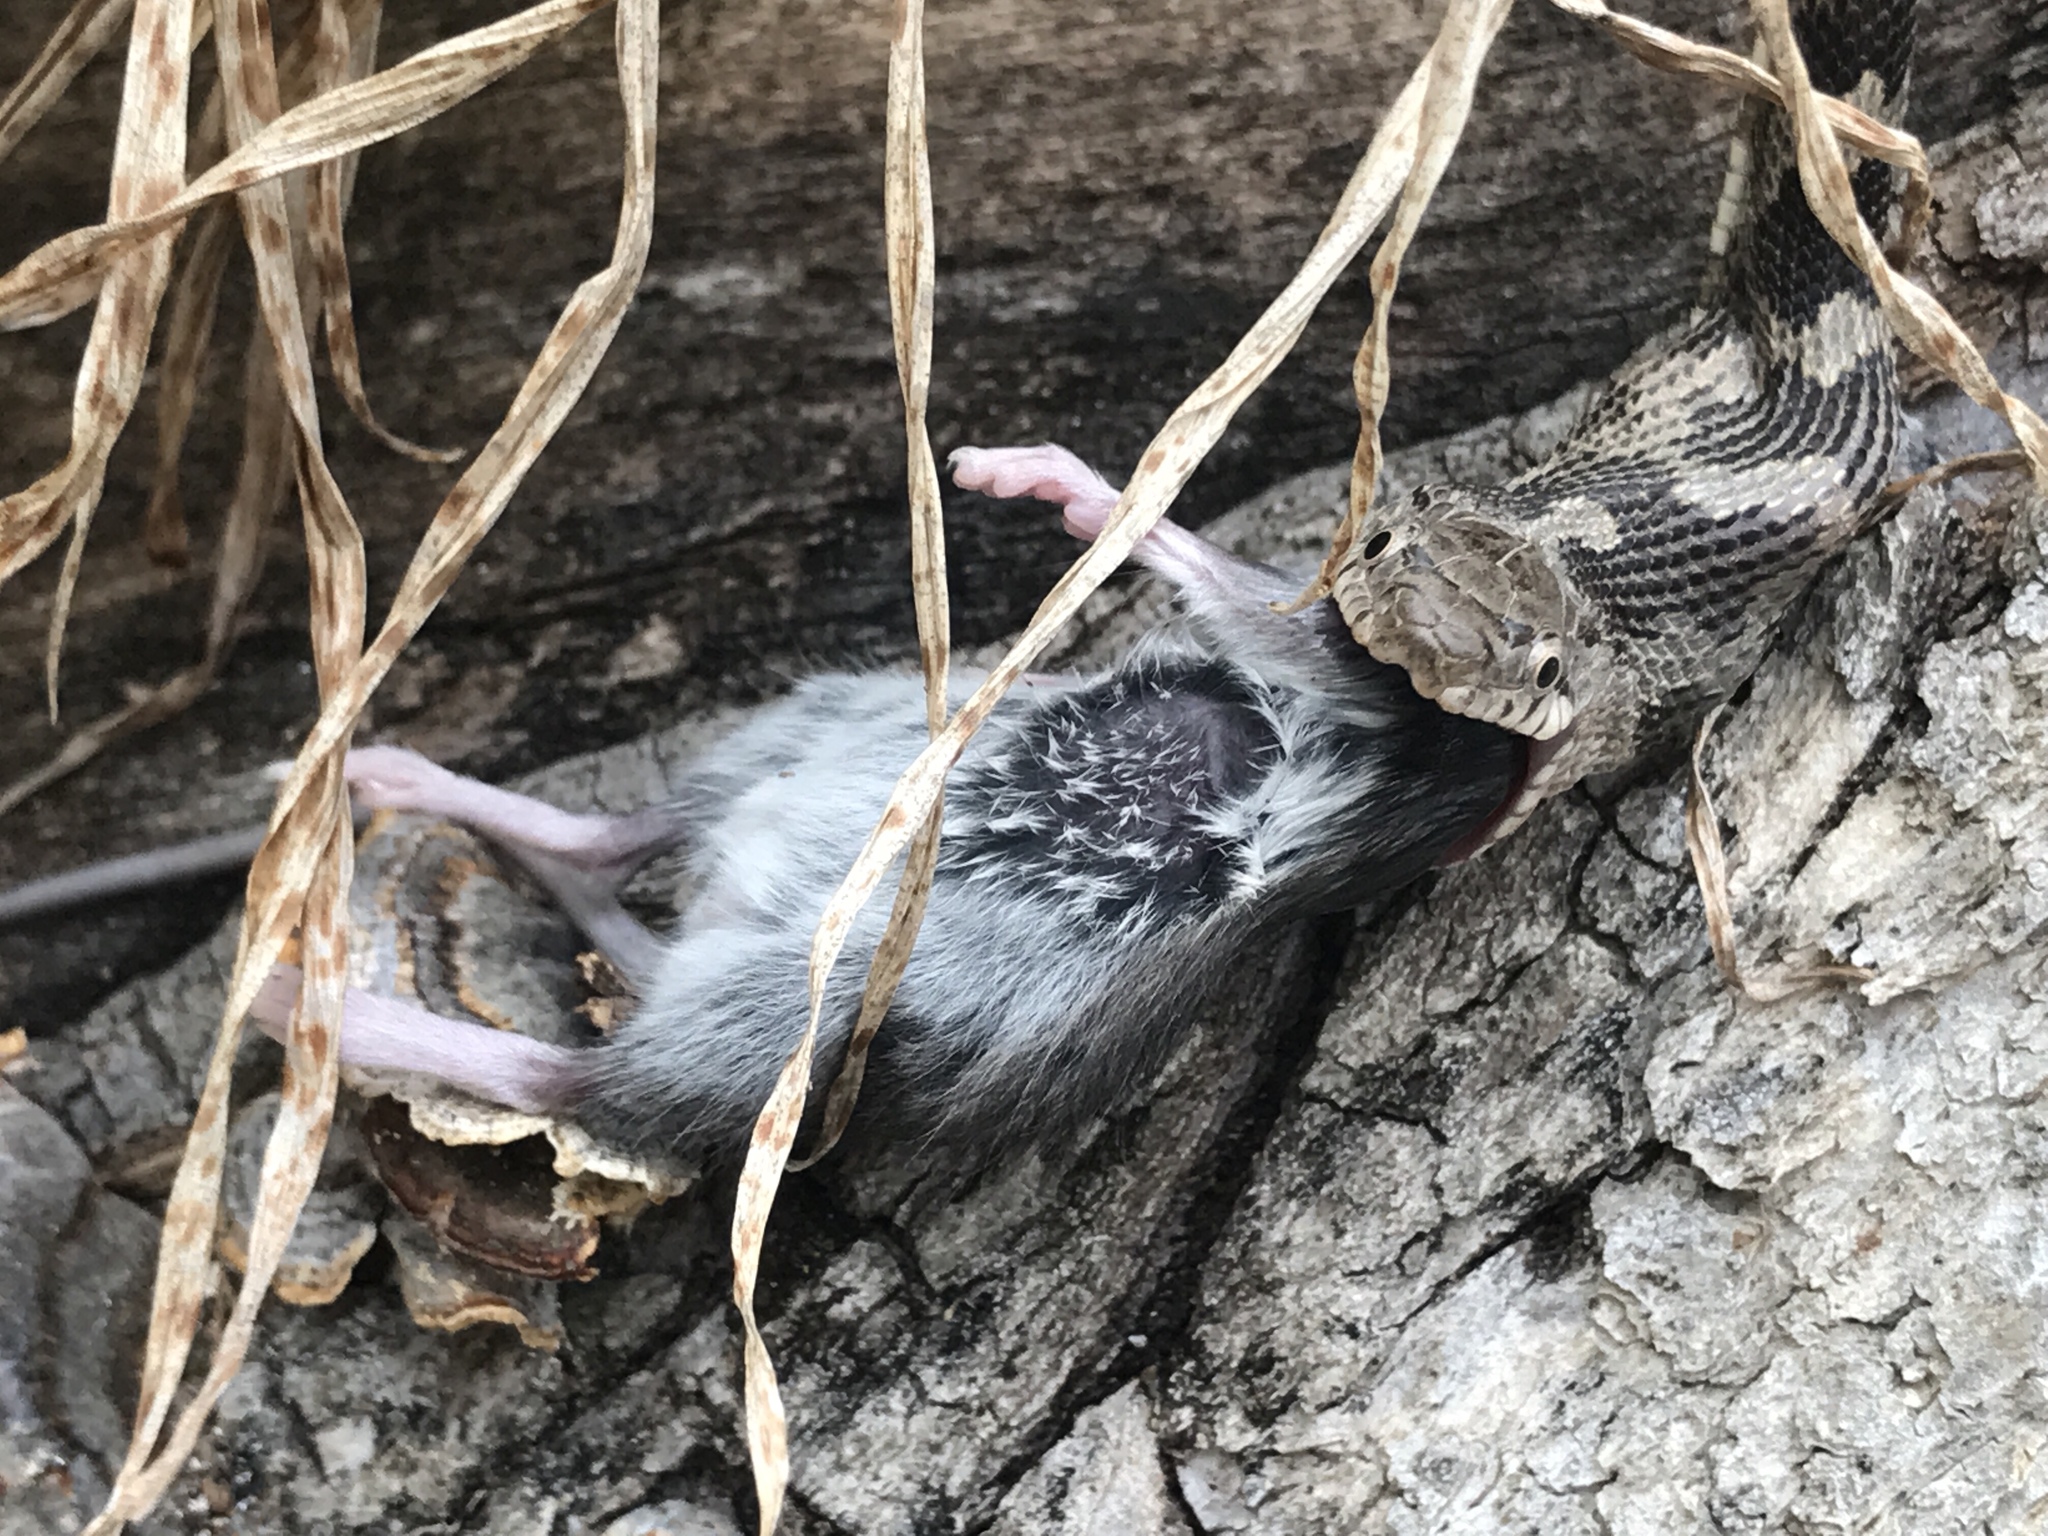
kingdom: Animalia
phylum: Chordata
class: Squamata
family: Colubridae
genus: Pantherophis
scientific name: Pantherophis alleghaniensis
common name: Eastern rat snake
